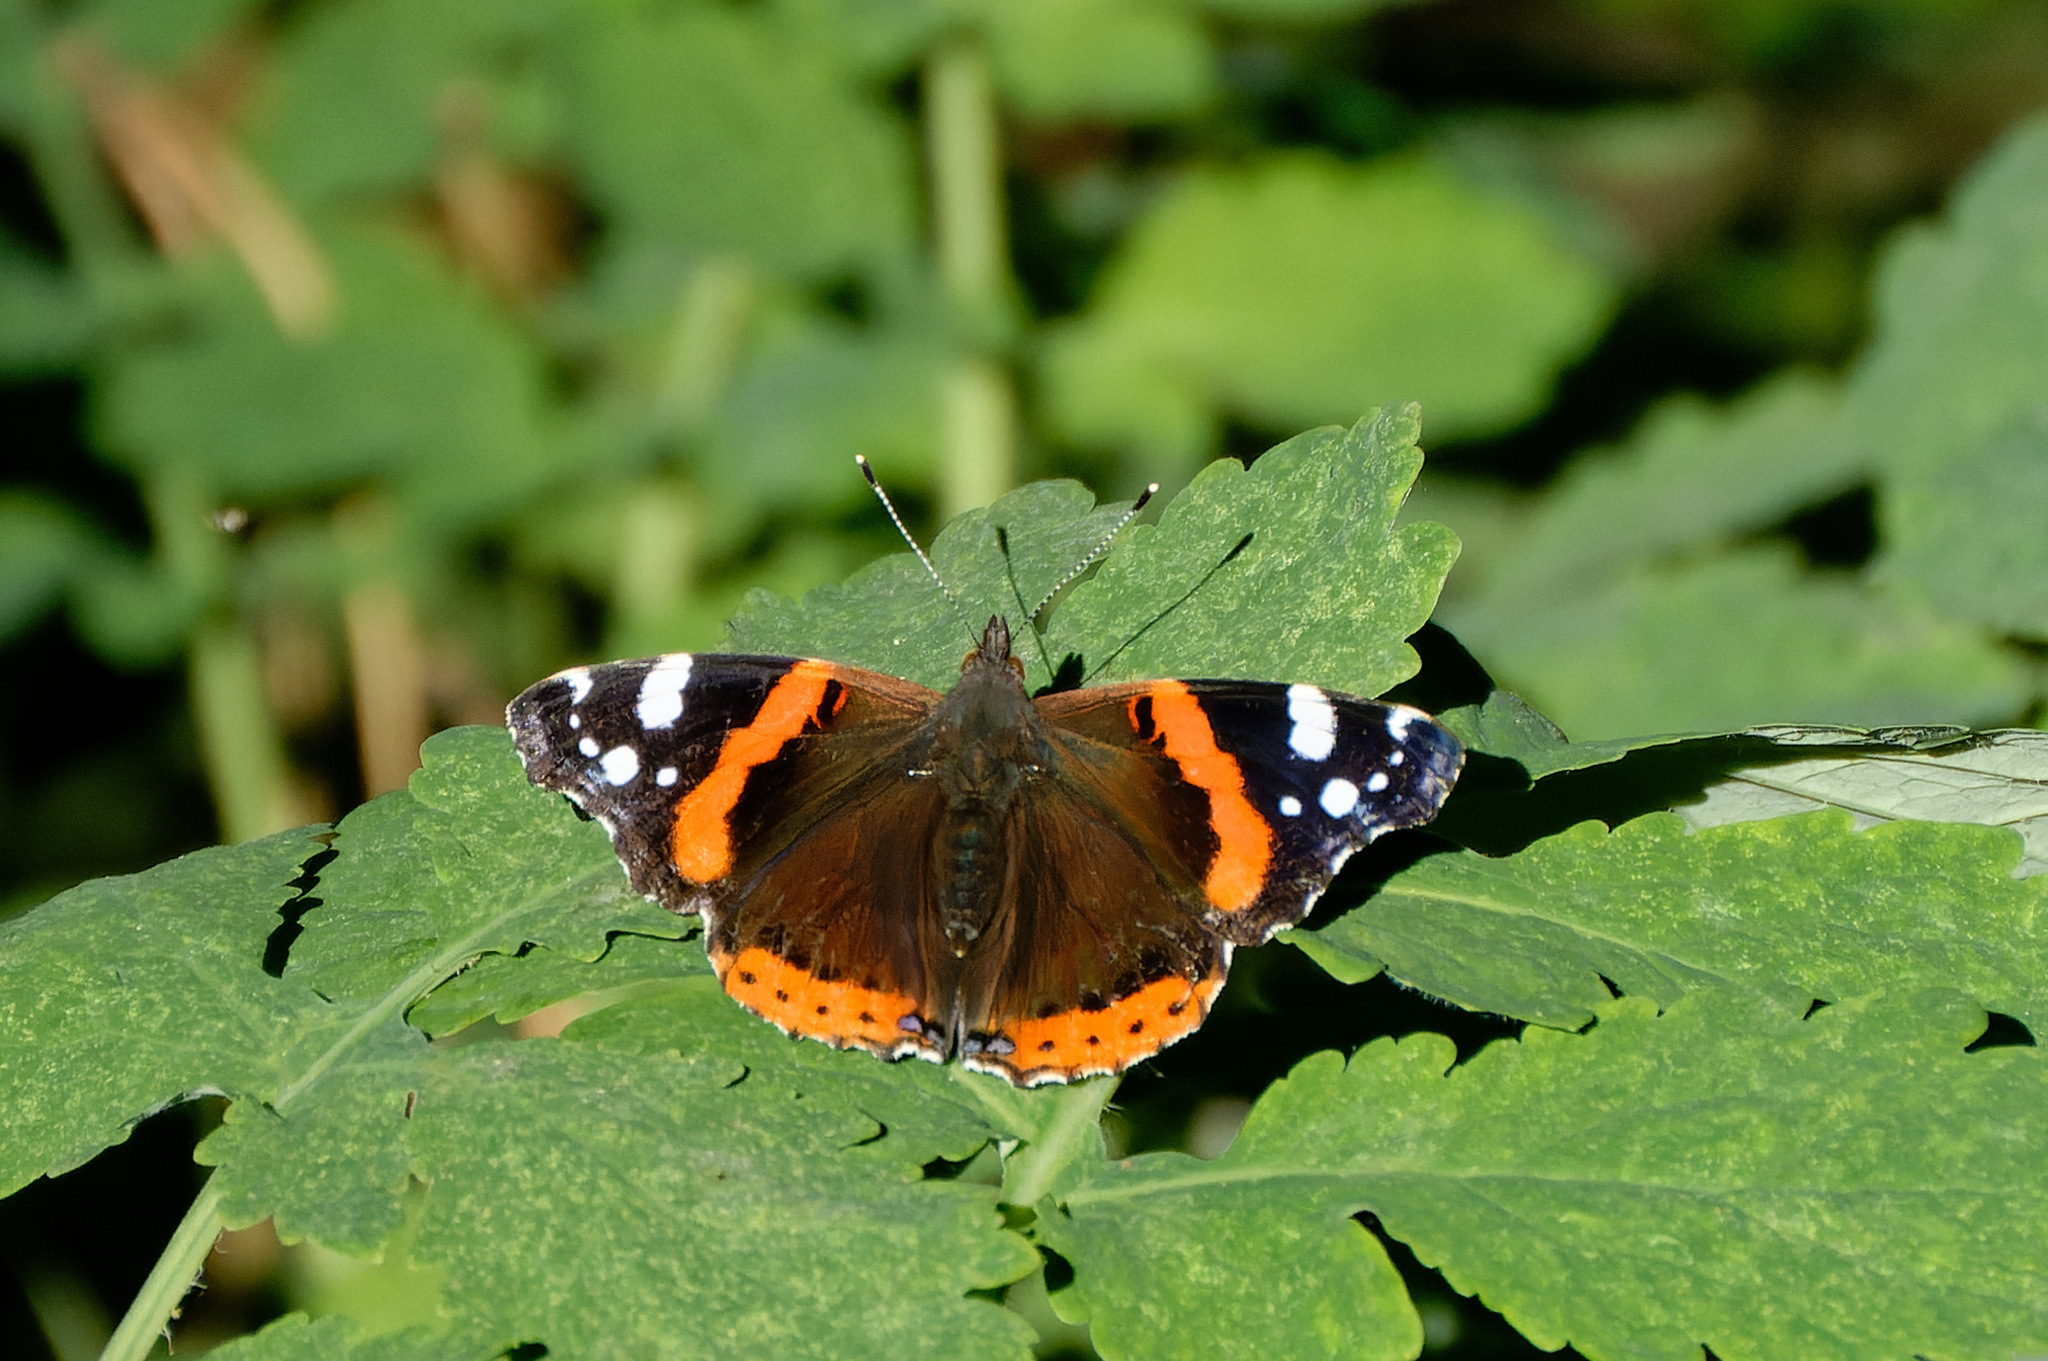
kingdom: Animalia
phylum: Arthropoda
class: Insecta
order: Lepidoptera
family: Nymphalidae
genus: Vanessa
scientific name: Vanessa atalanta
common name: Red admiral
